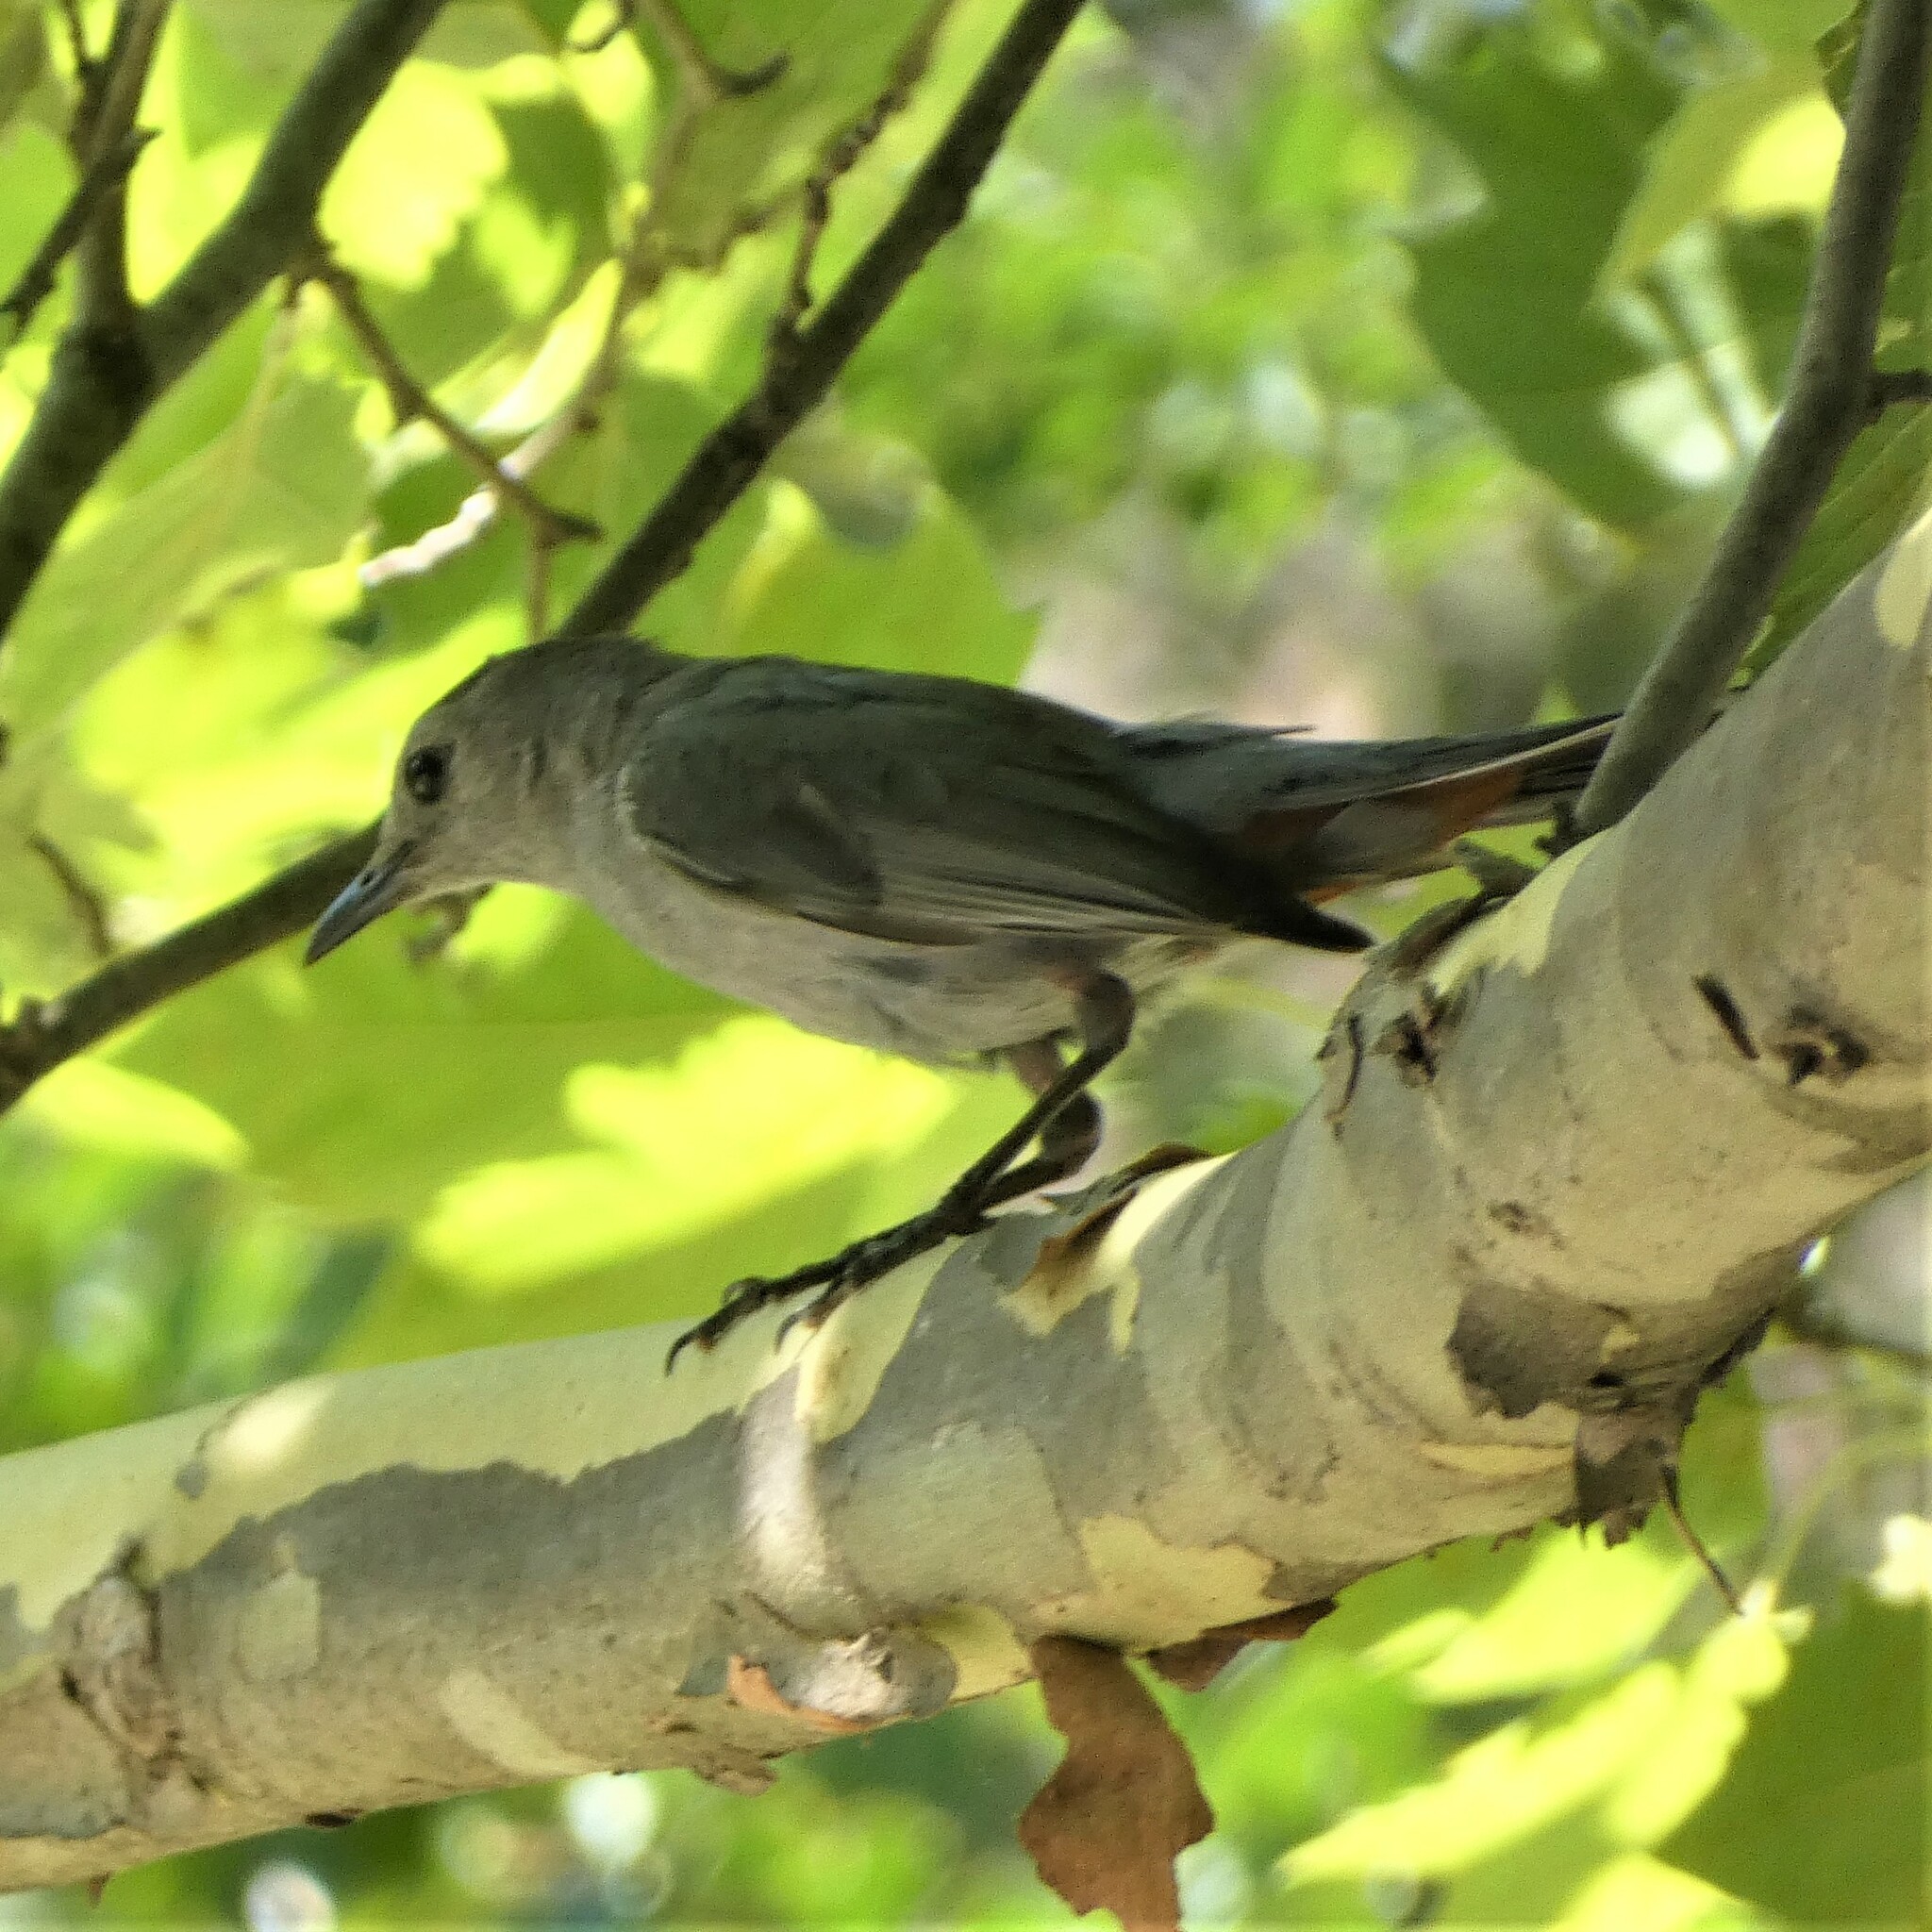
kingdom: Animalia
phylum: Chordata
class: Aves
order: Passeriformes
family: Mimidae
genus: Dumetella
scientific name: Dumetella carolinensis
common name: Gray catbird
